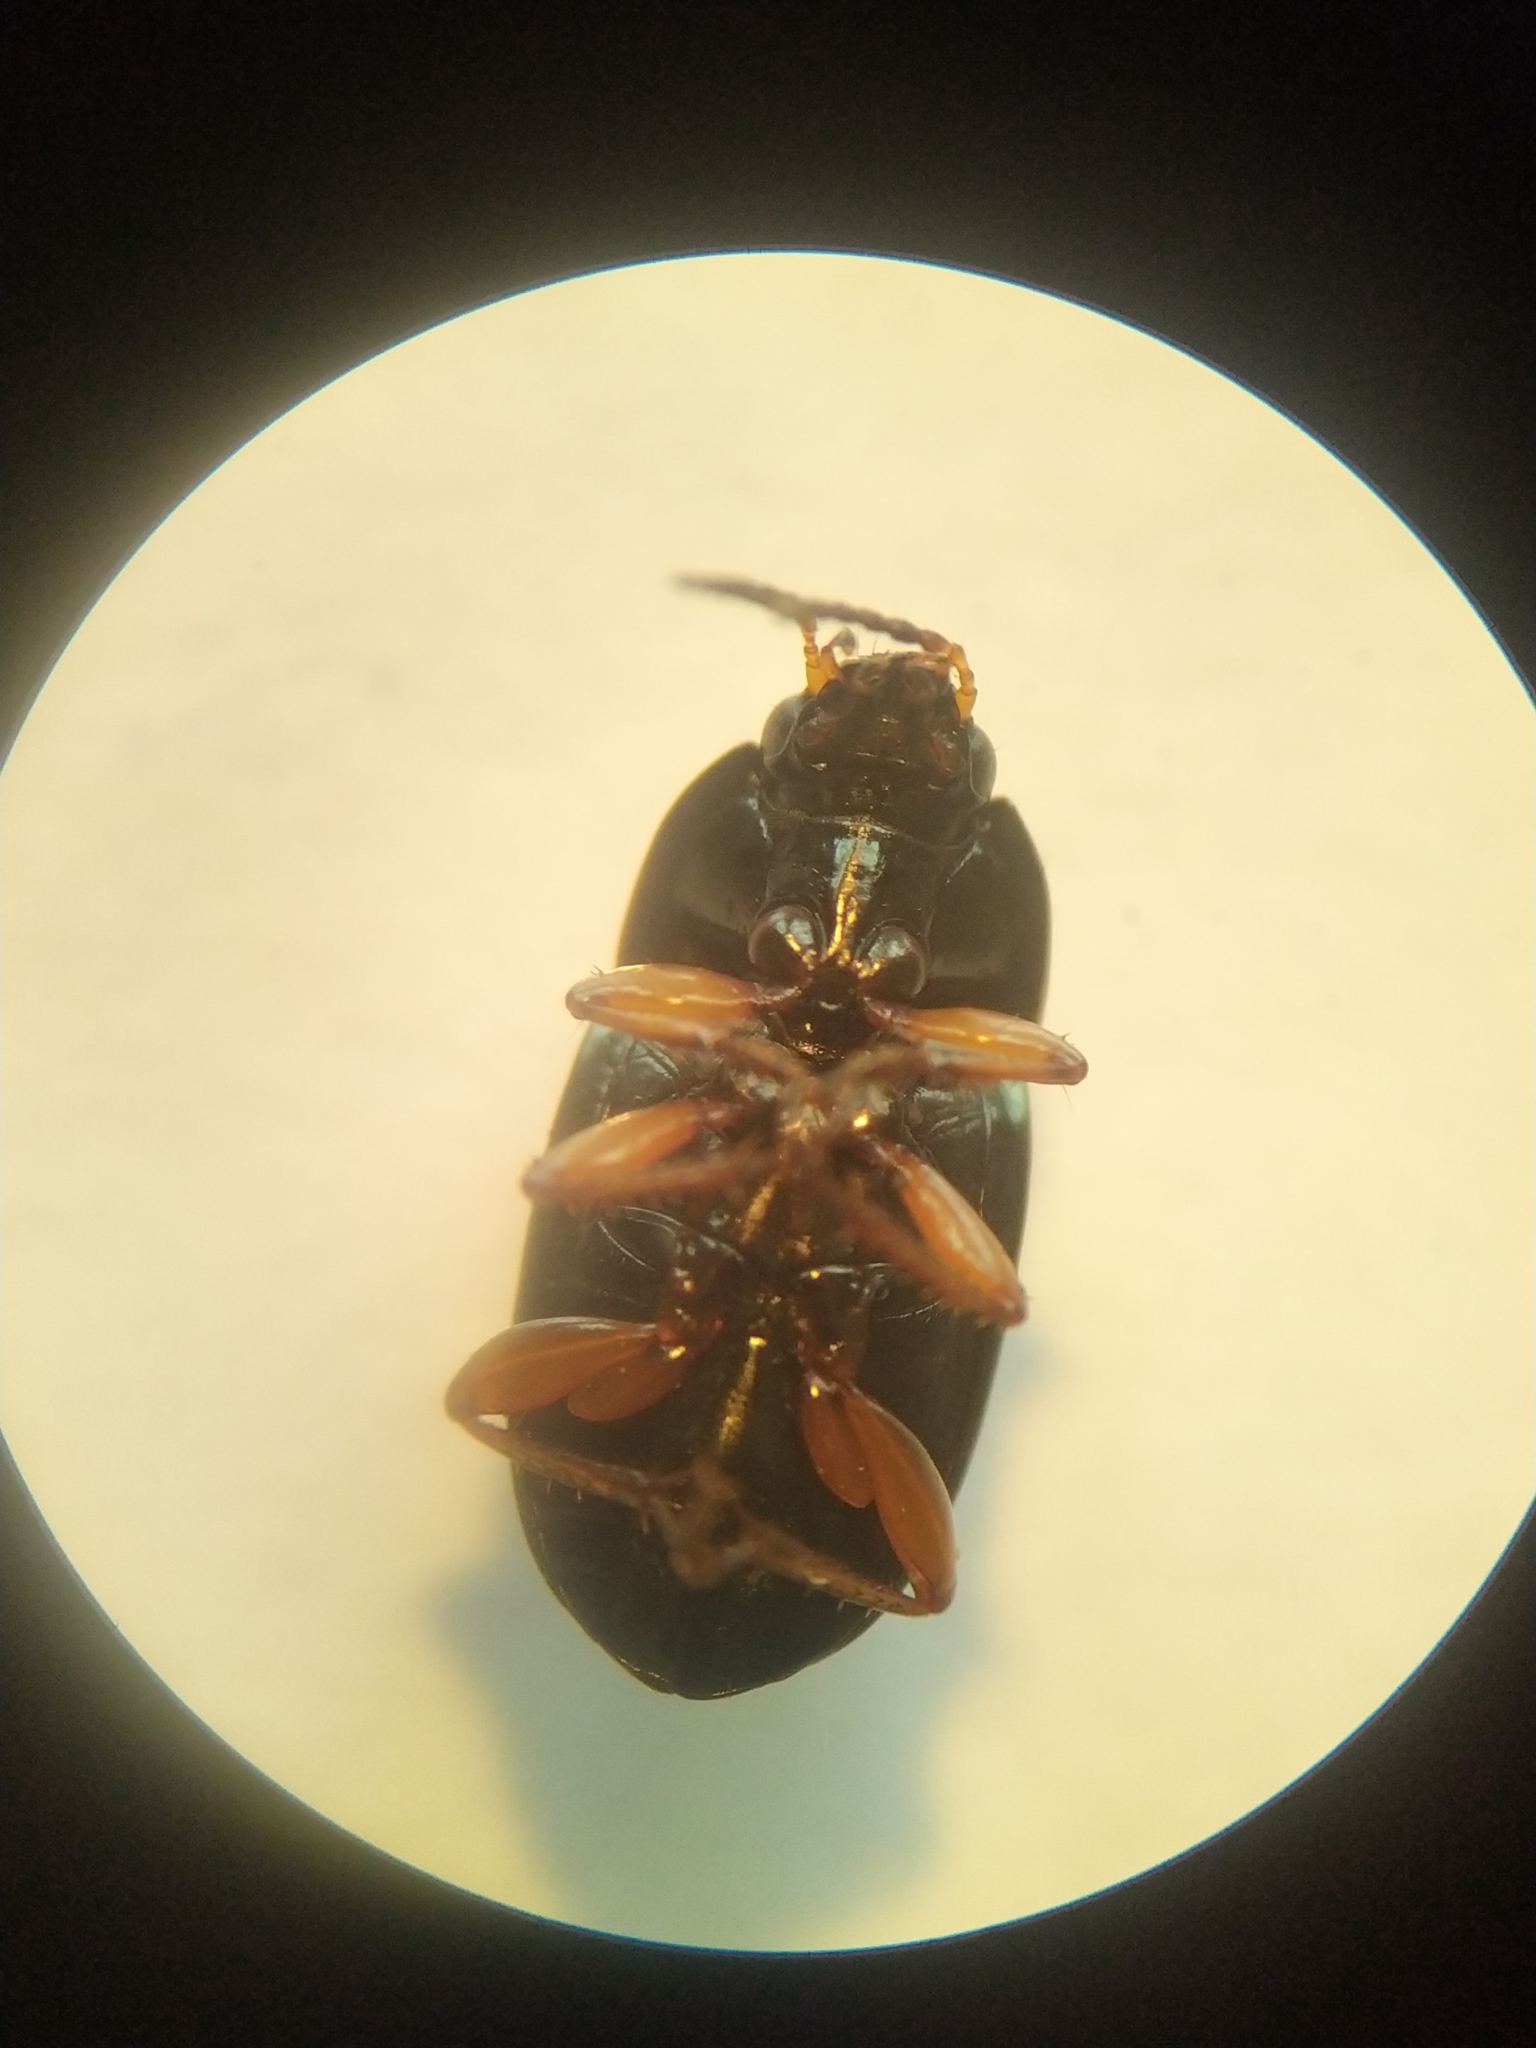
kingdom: Animalia
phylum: Arthropoda
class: Insecta
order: Coleoptera
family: Carabidae
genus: Amara
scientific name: Amara familiaris
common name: Familiar harp round beetle
